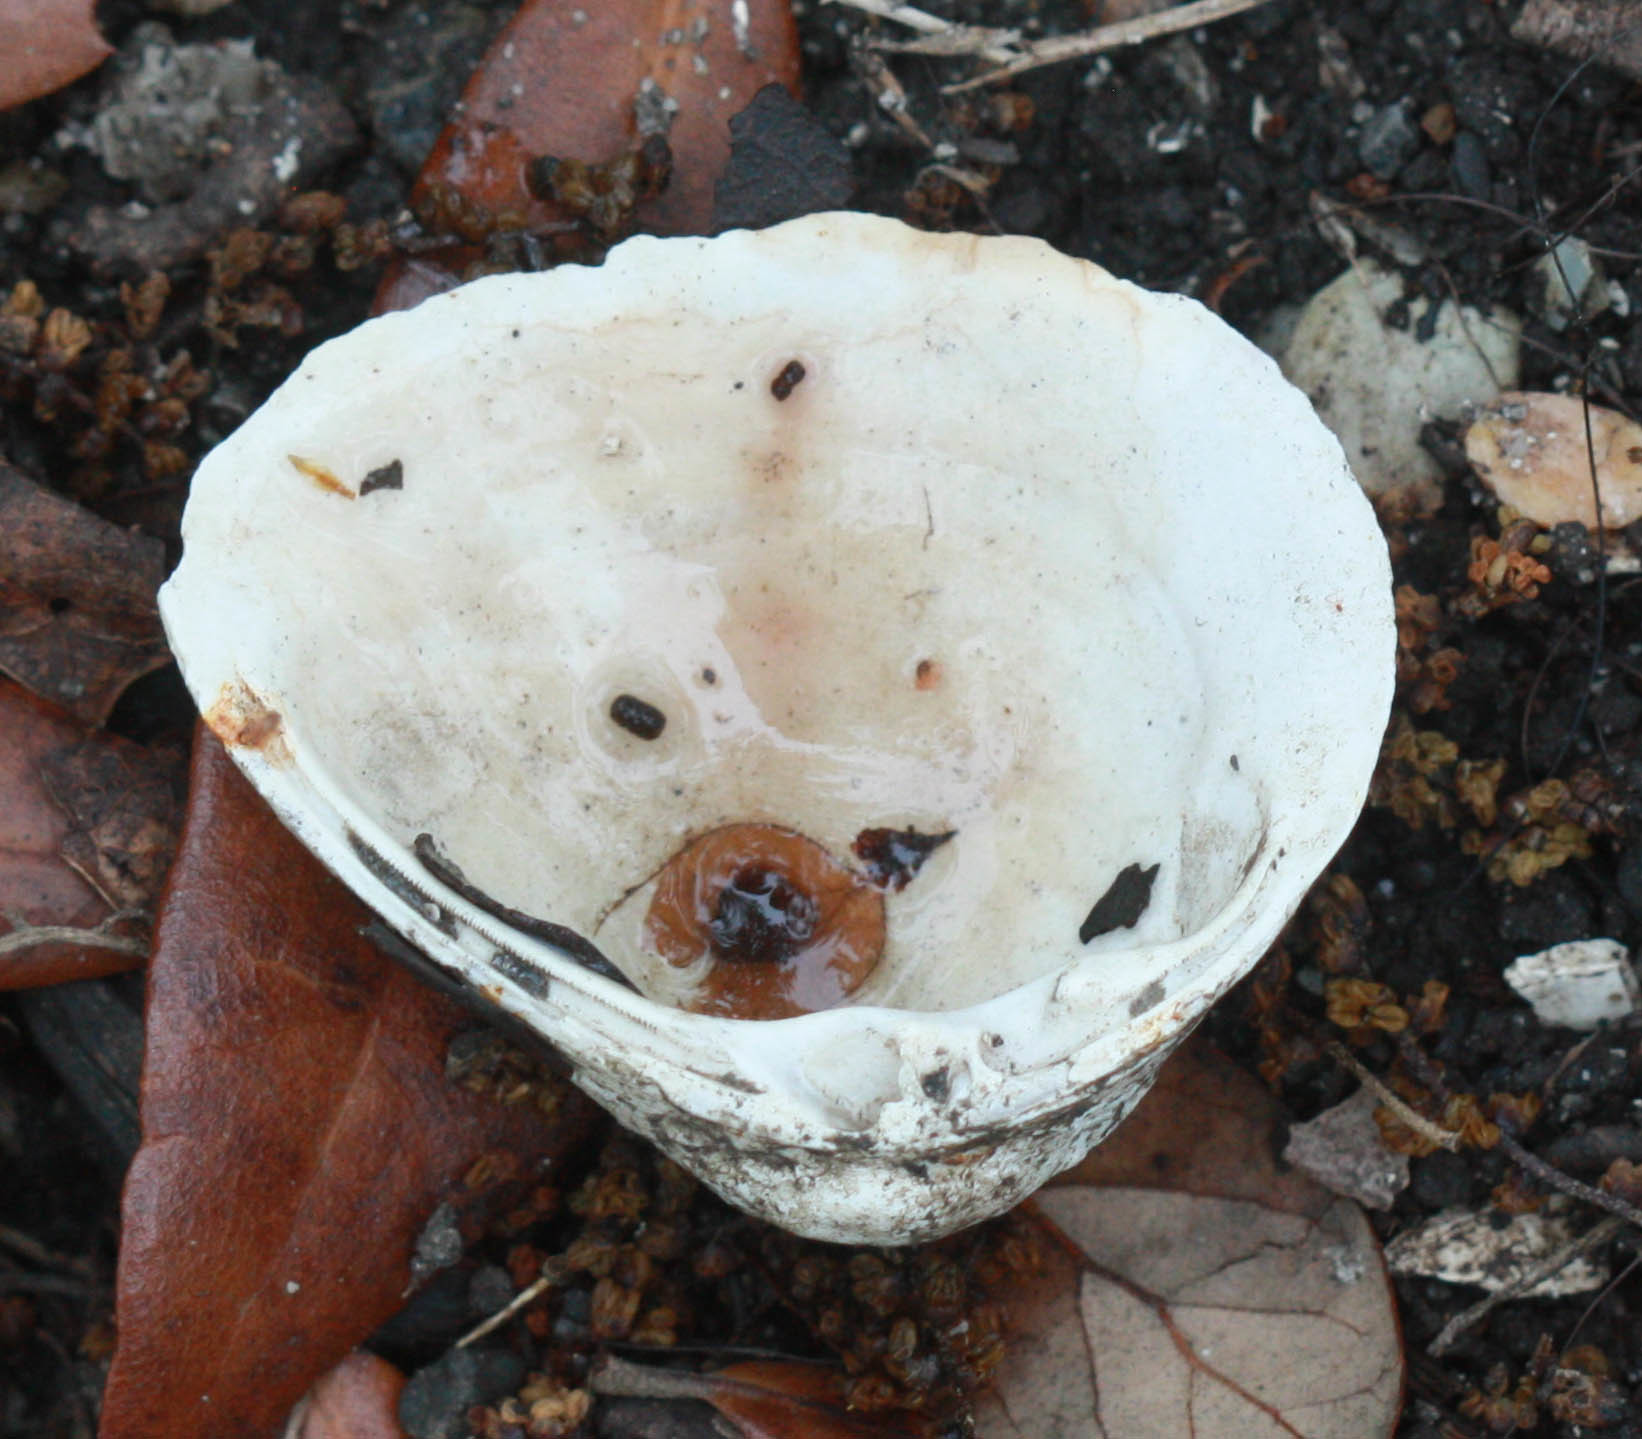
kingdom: Animalia
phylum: Mollusca
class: Bivalvia
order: Venerida
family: Mactridae
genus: Rangia
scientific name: Rangia cuneata
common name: Atlantic rangia
